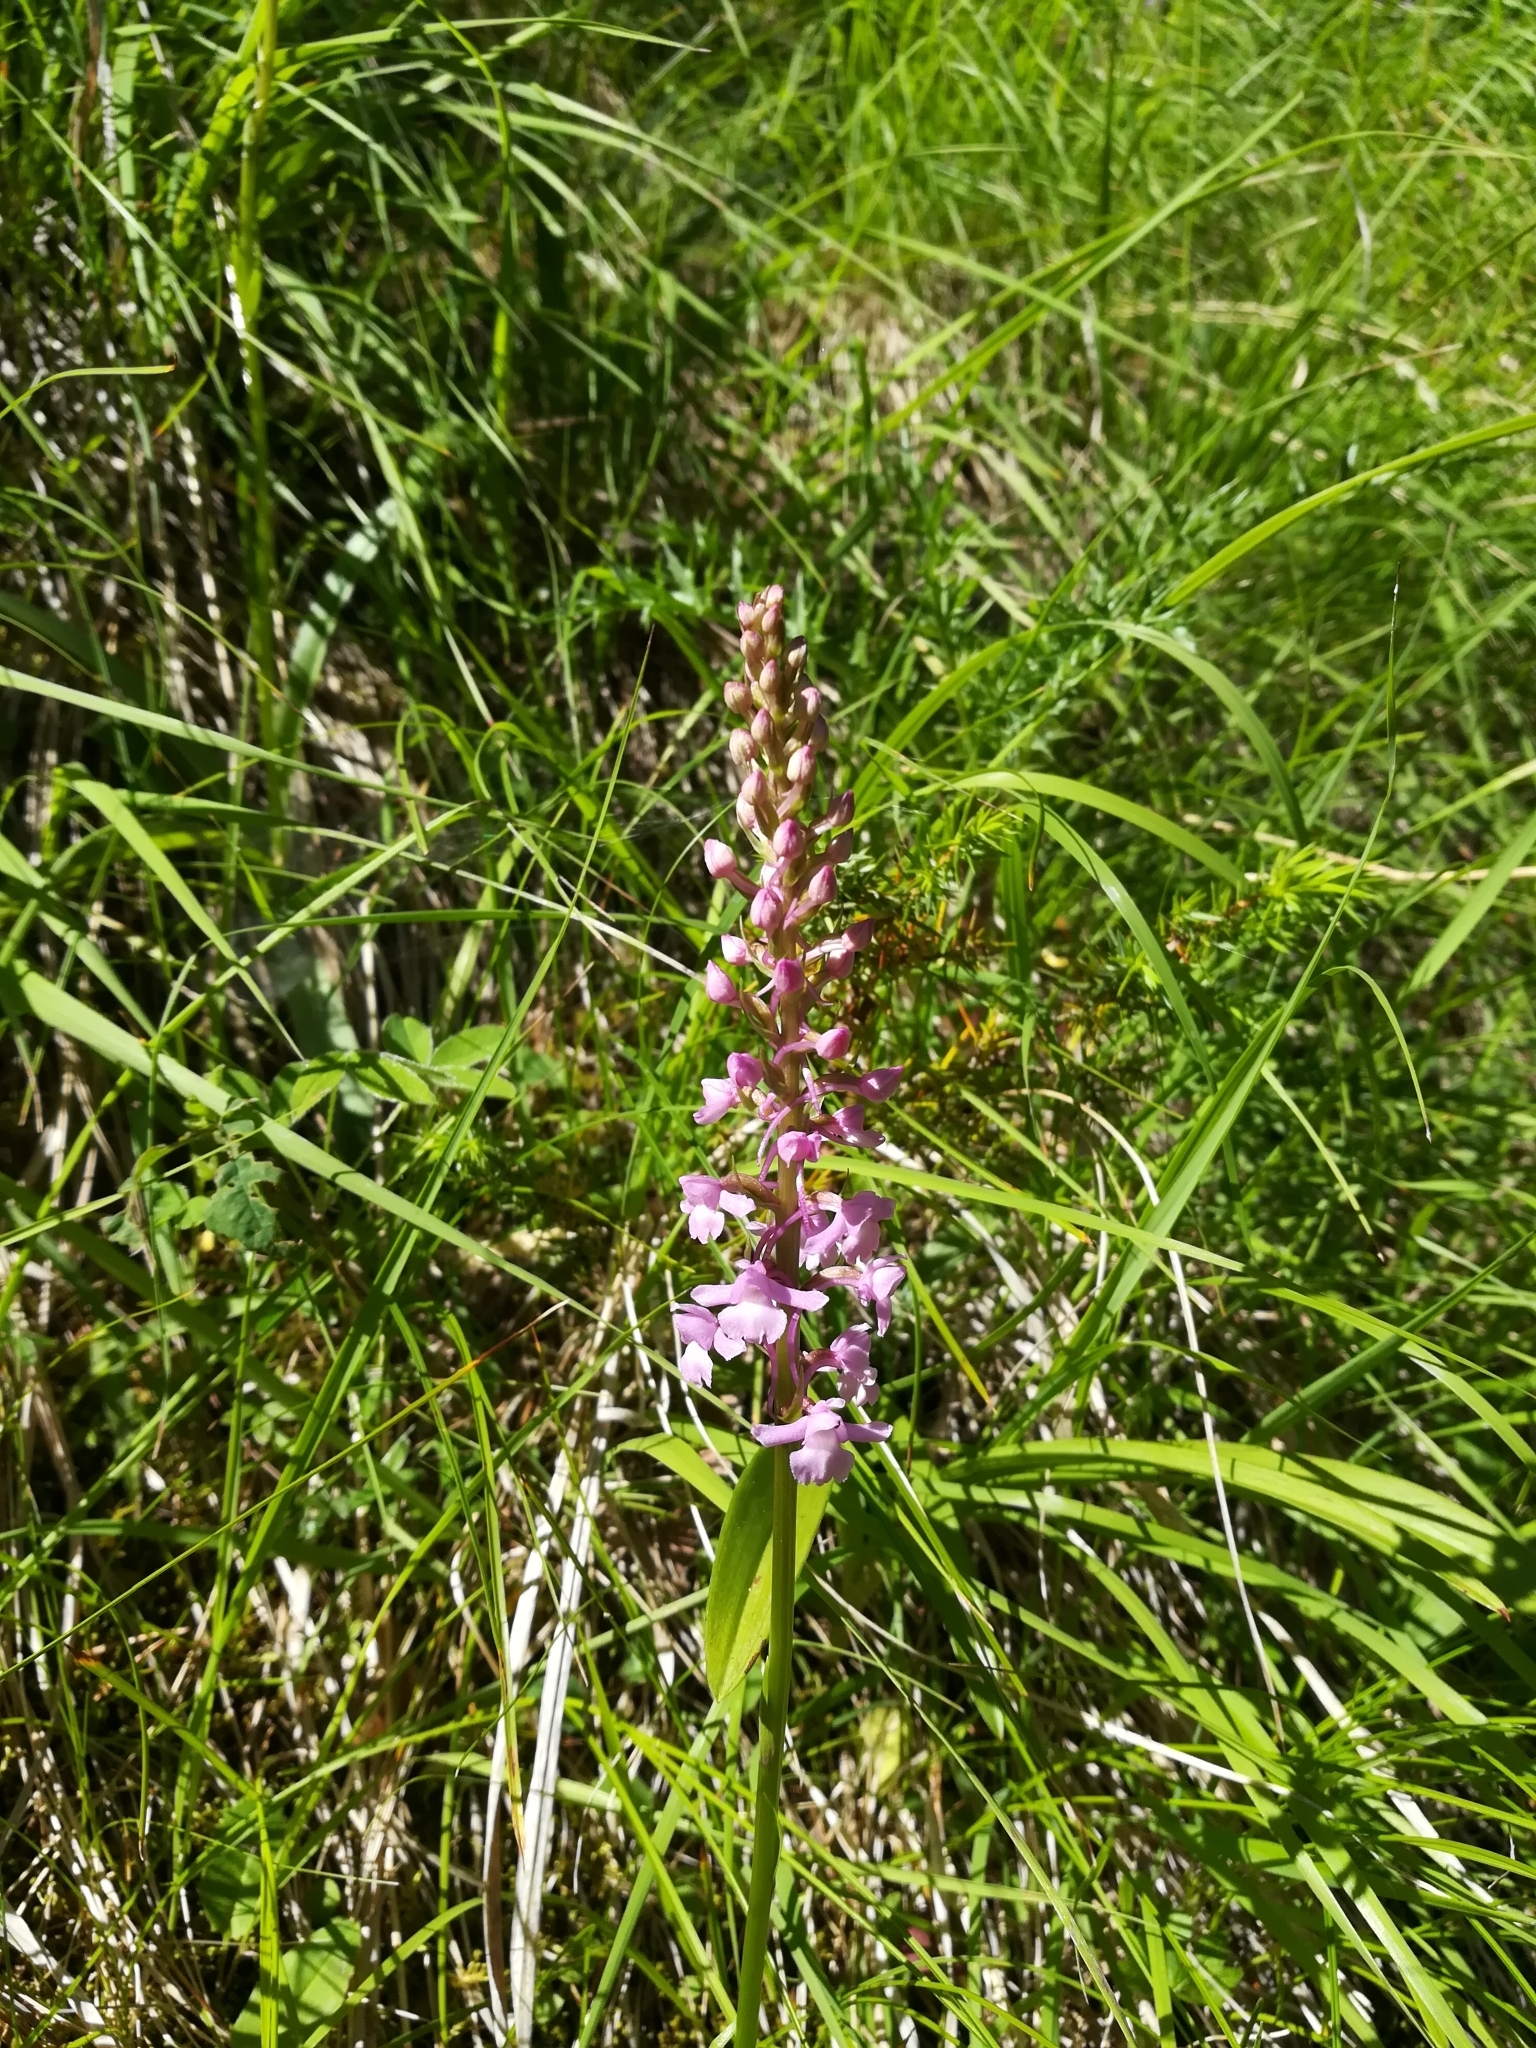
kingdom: Plantae
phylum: Tracheophyta
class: Liliopsida
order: Asparagales
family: Orchidaceae
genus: Gymnadenia
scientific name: Gymnadenia conopsea
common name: Fragrant orchid
